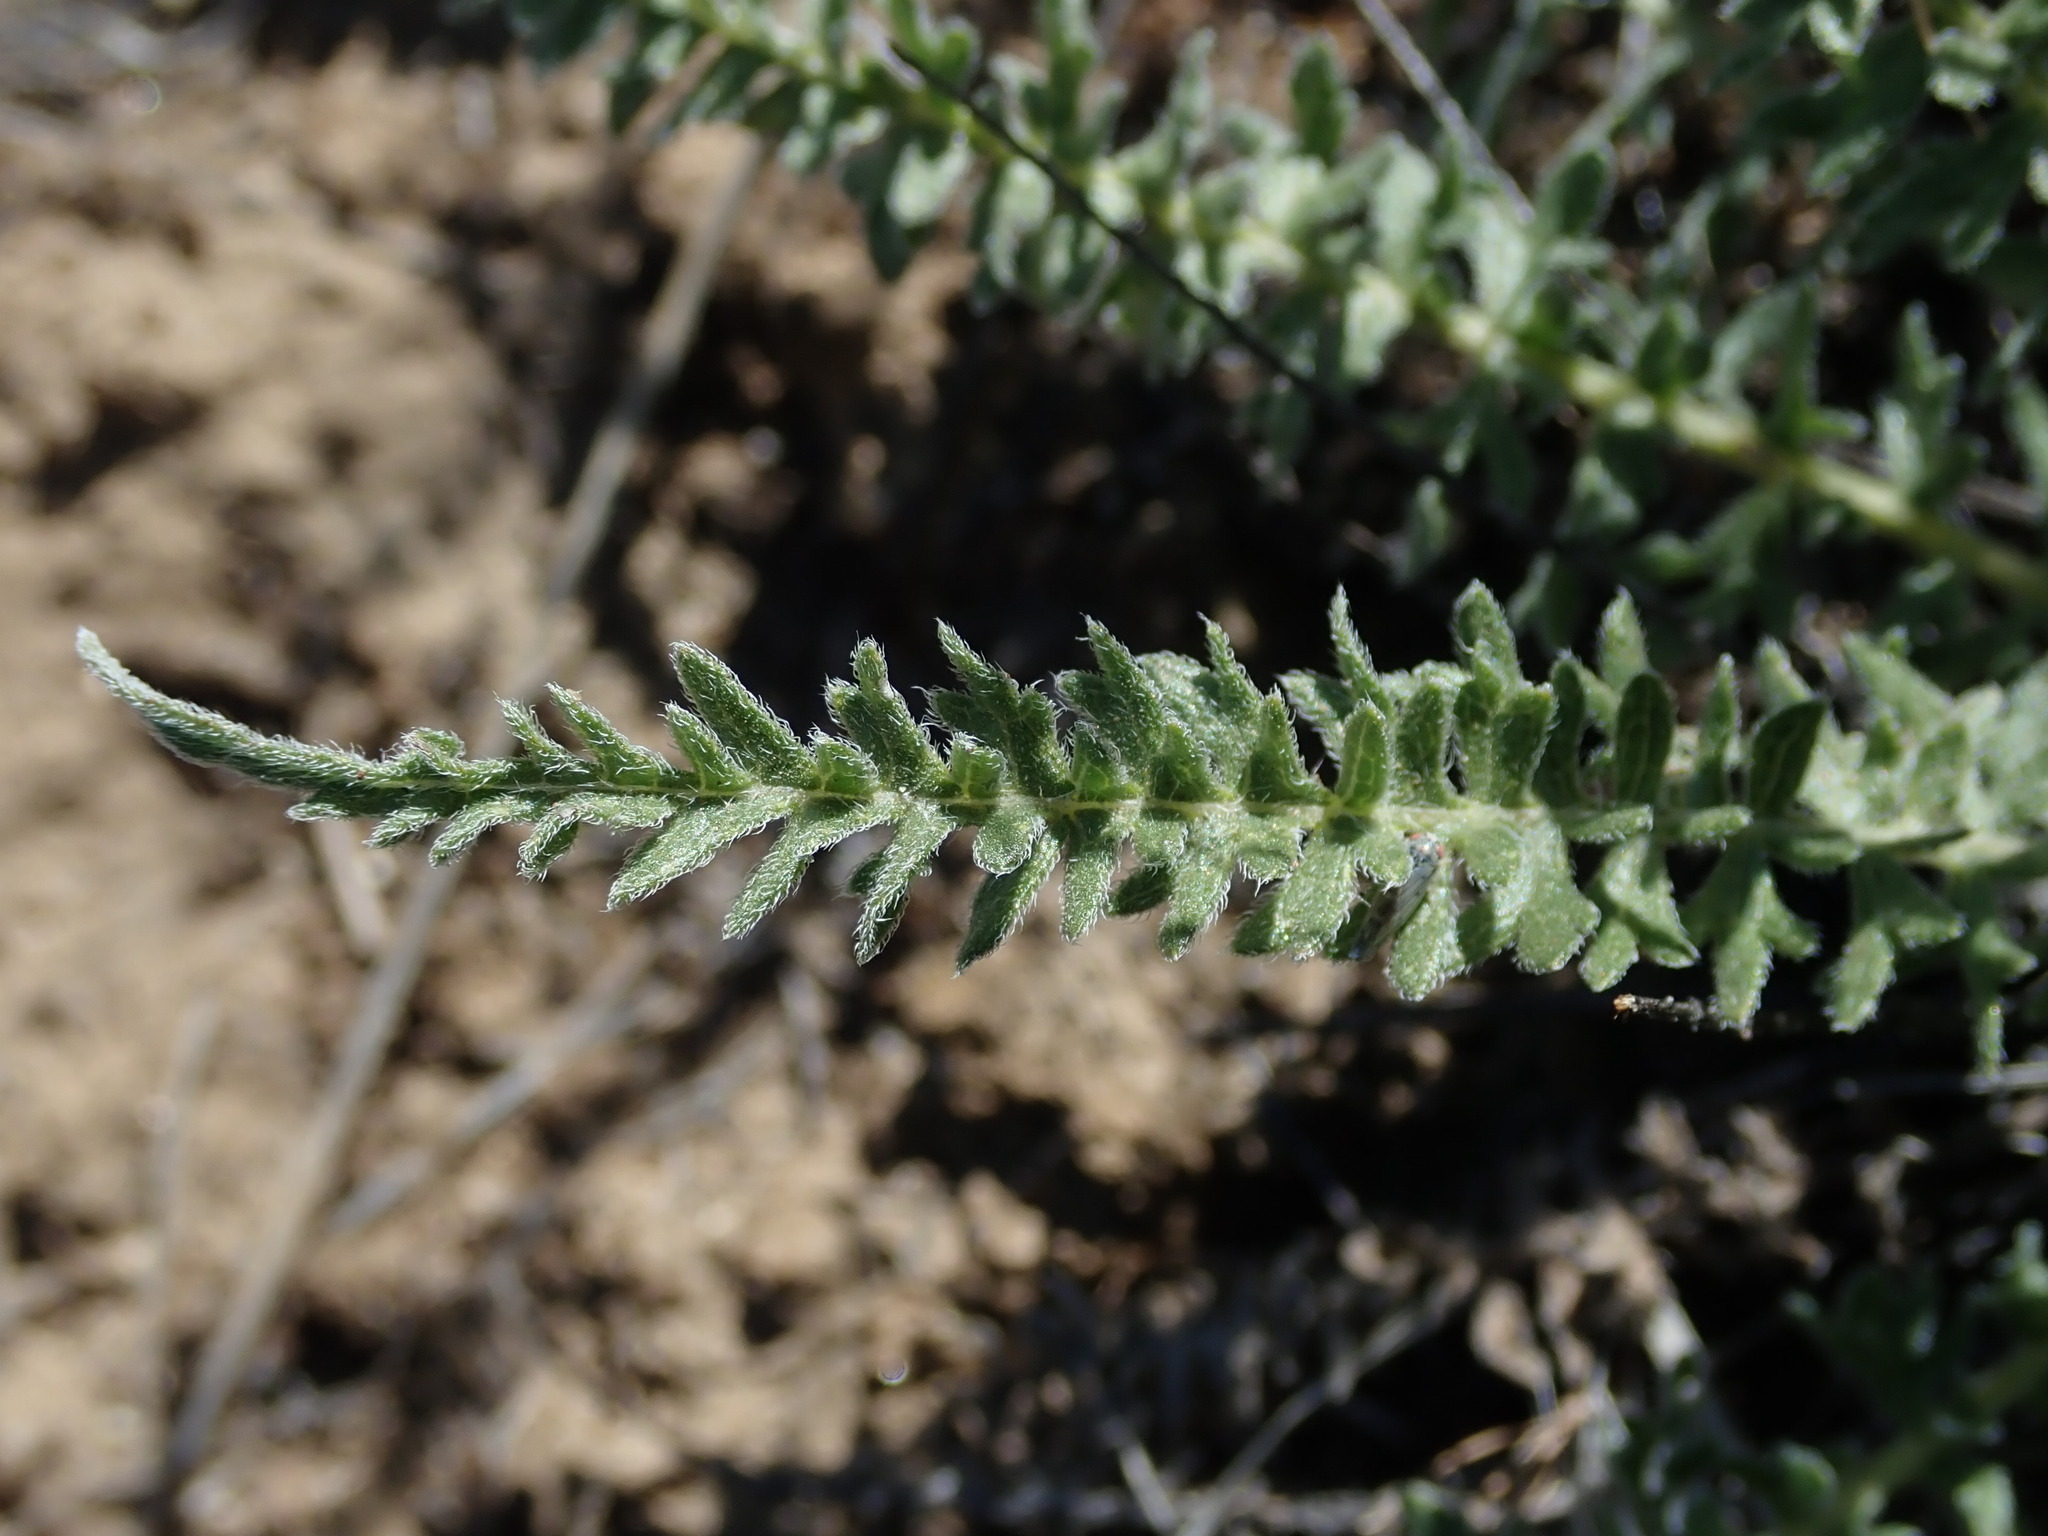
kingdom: Plantae
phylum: Tracheophyta
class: Magnoliopsida
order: Asterales
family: Asteraceae
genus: Balsamorhiza
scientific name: Balsamorhiza hookeri
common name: Hooker's balsamroot
